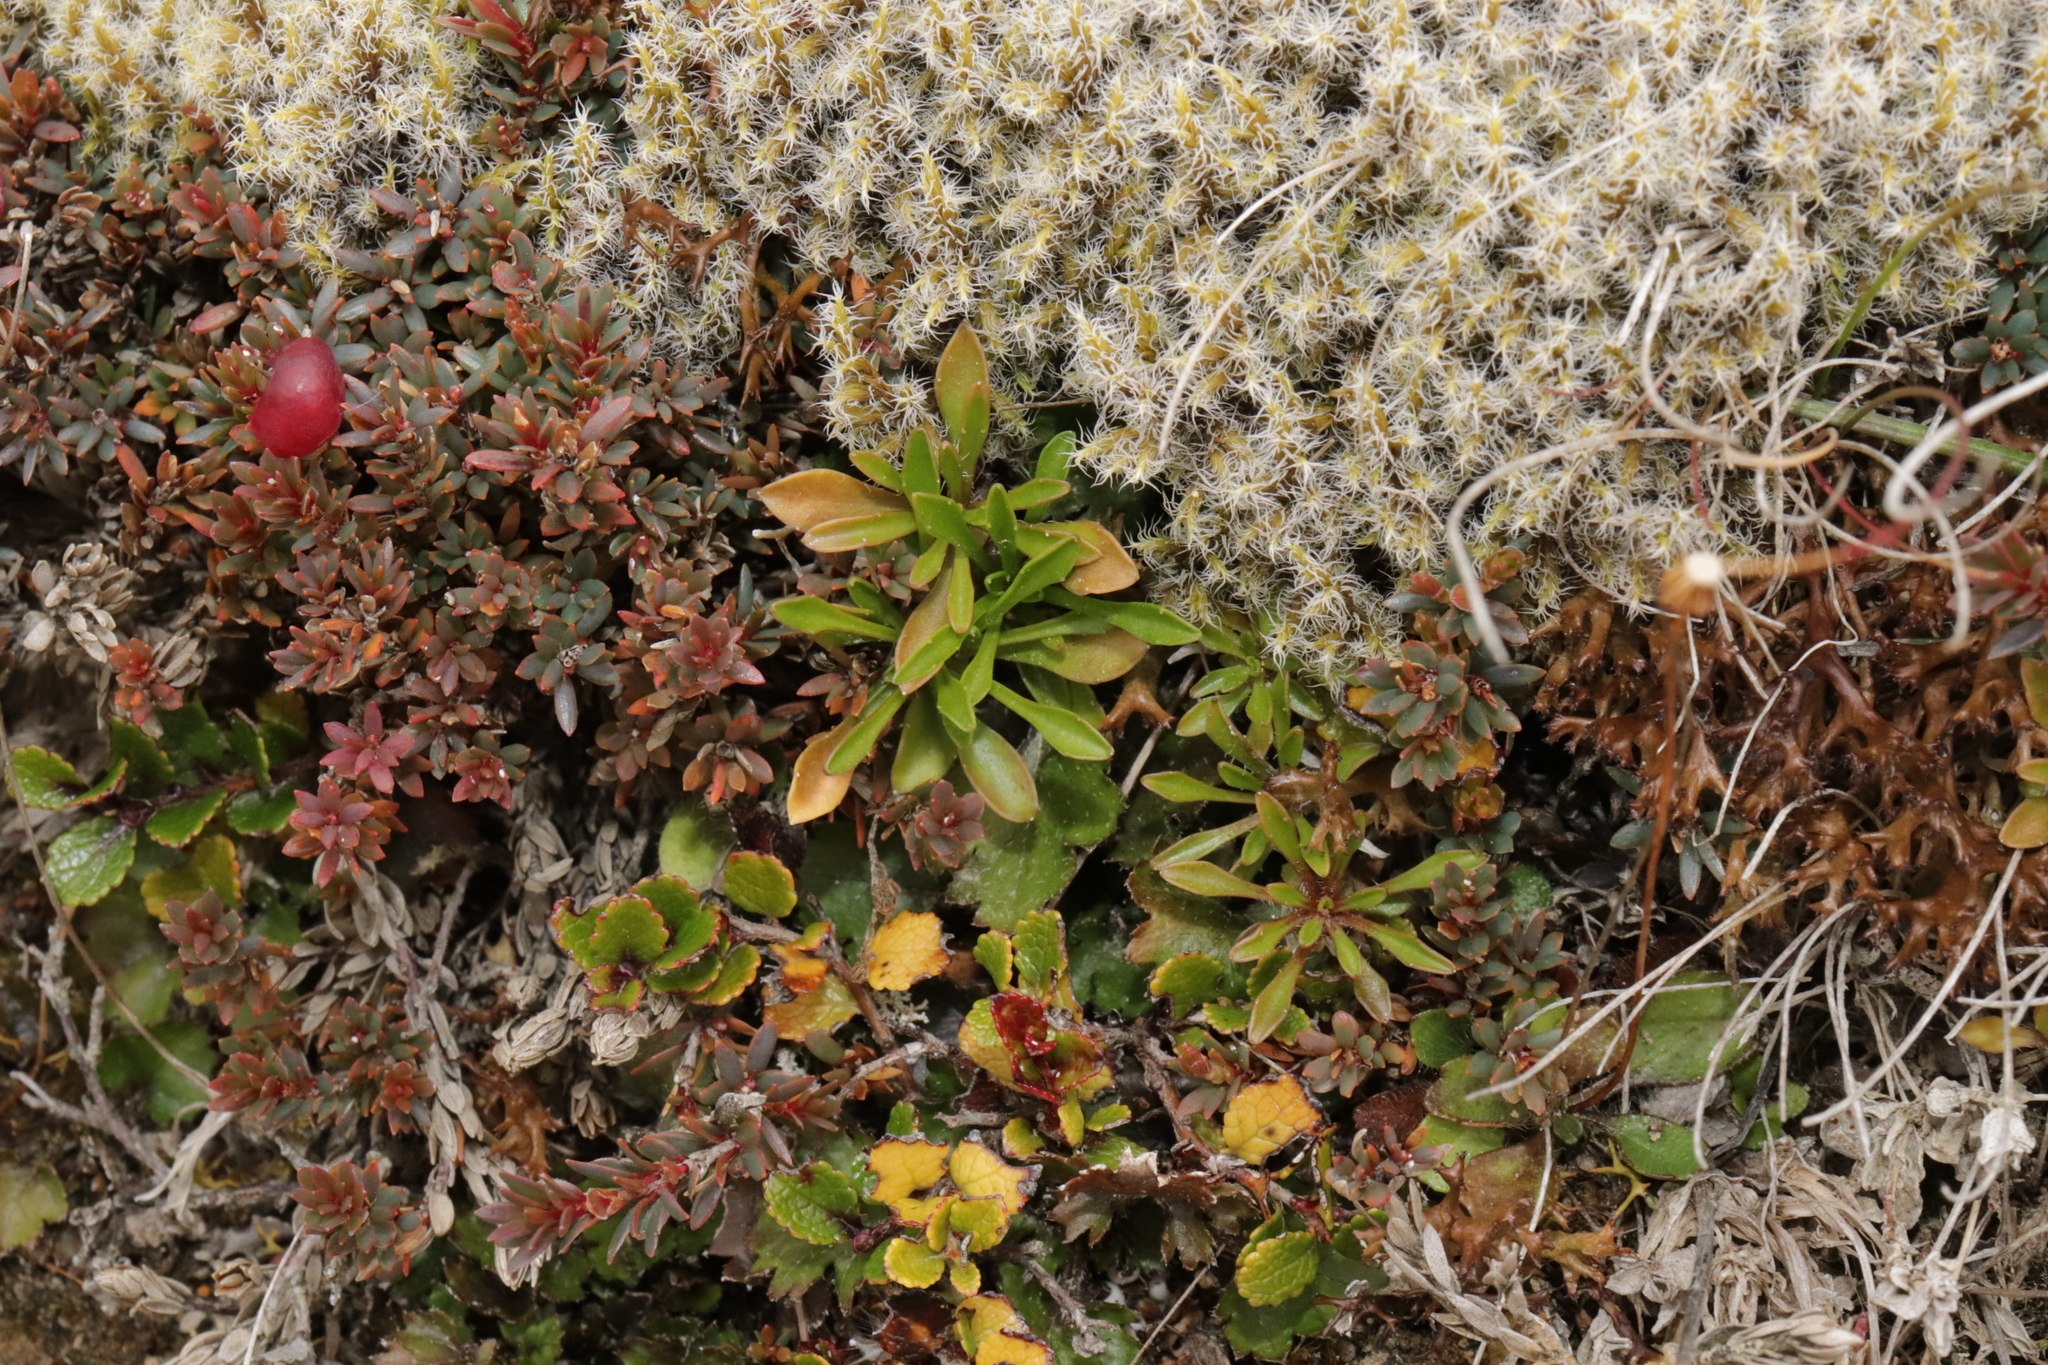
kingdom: Plantae
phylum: Tracheophyta
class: Magnoliopsida
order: Asterales
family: Campanulaceae
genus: Wahlenbergia
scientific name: Wahlenbergia albomarginata
